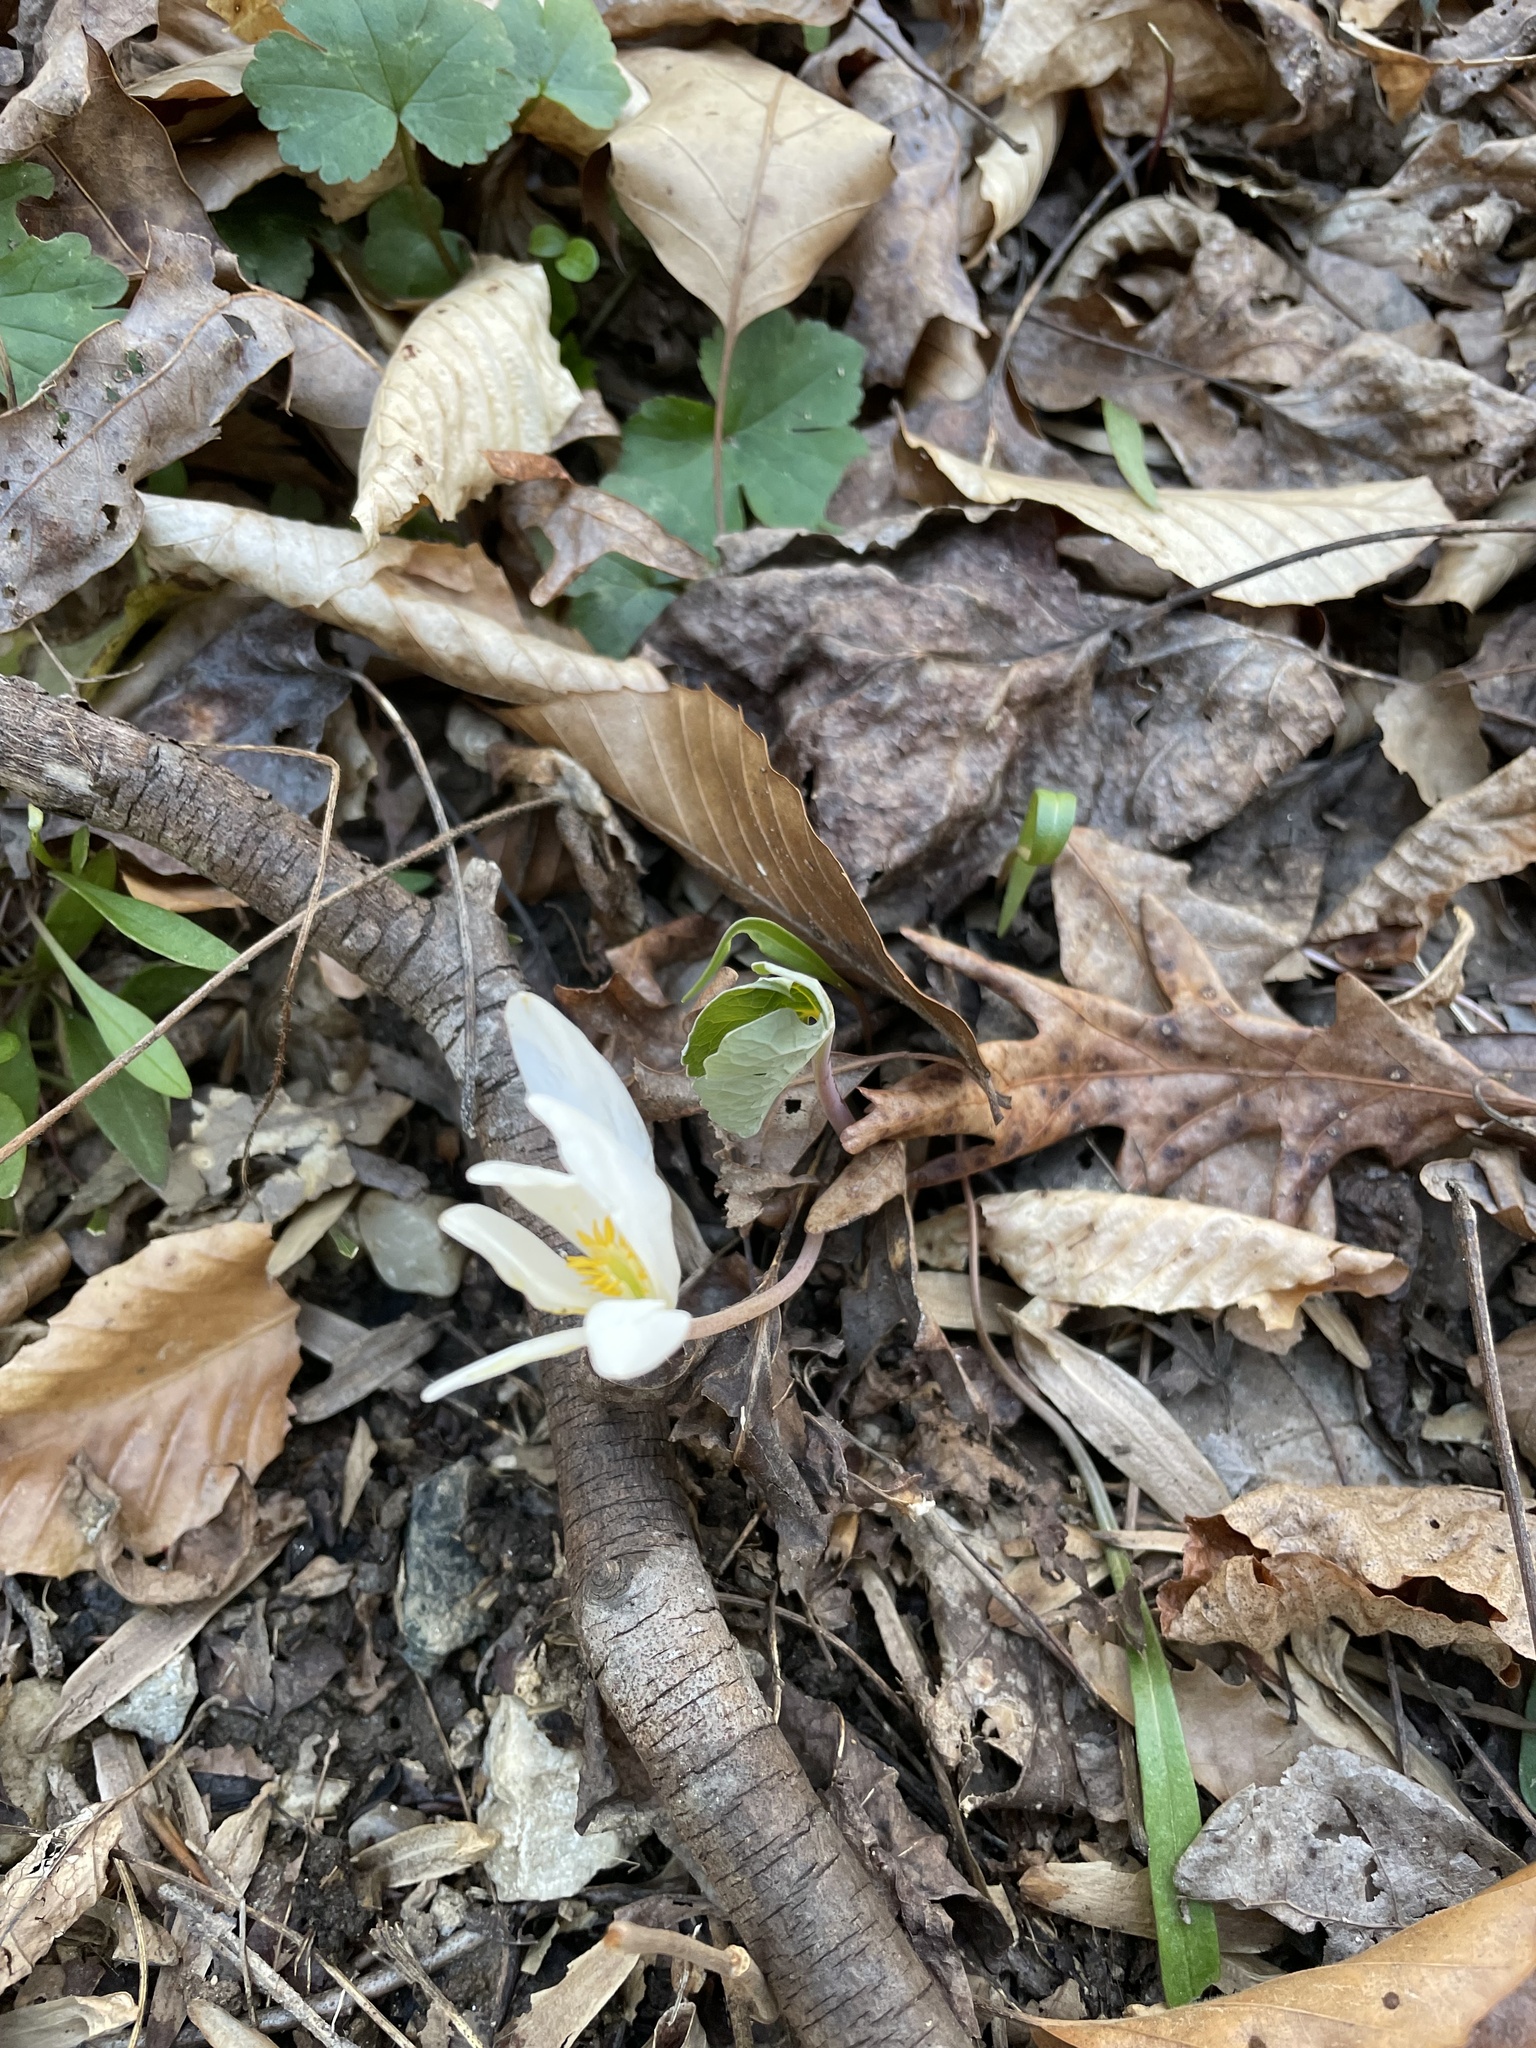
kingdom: Plantae
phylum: Tracheophyta
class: Magnoliopsida
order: Ranunculales
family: Papaveraceae
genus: Sanguinaria
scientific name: Sanguinaria canadensis
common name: Bloodroot
